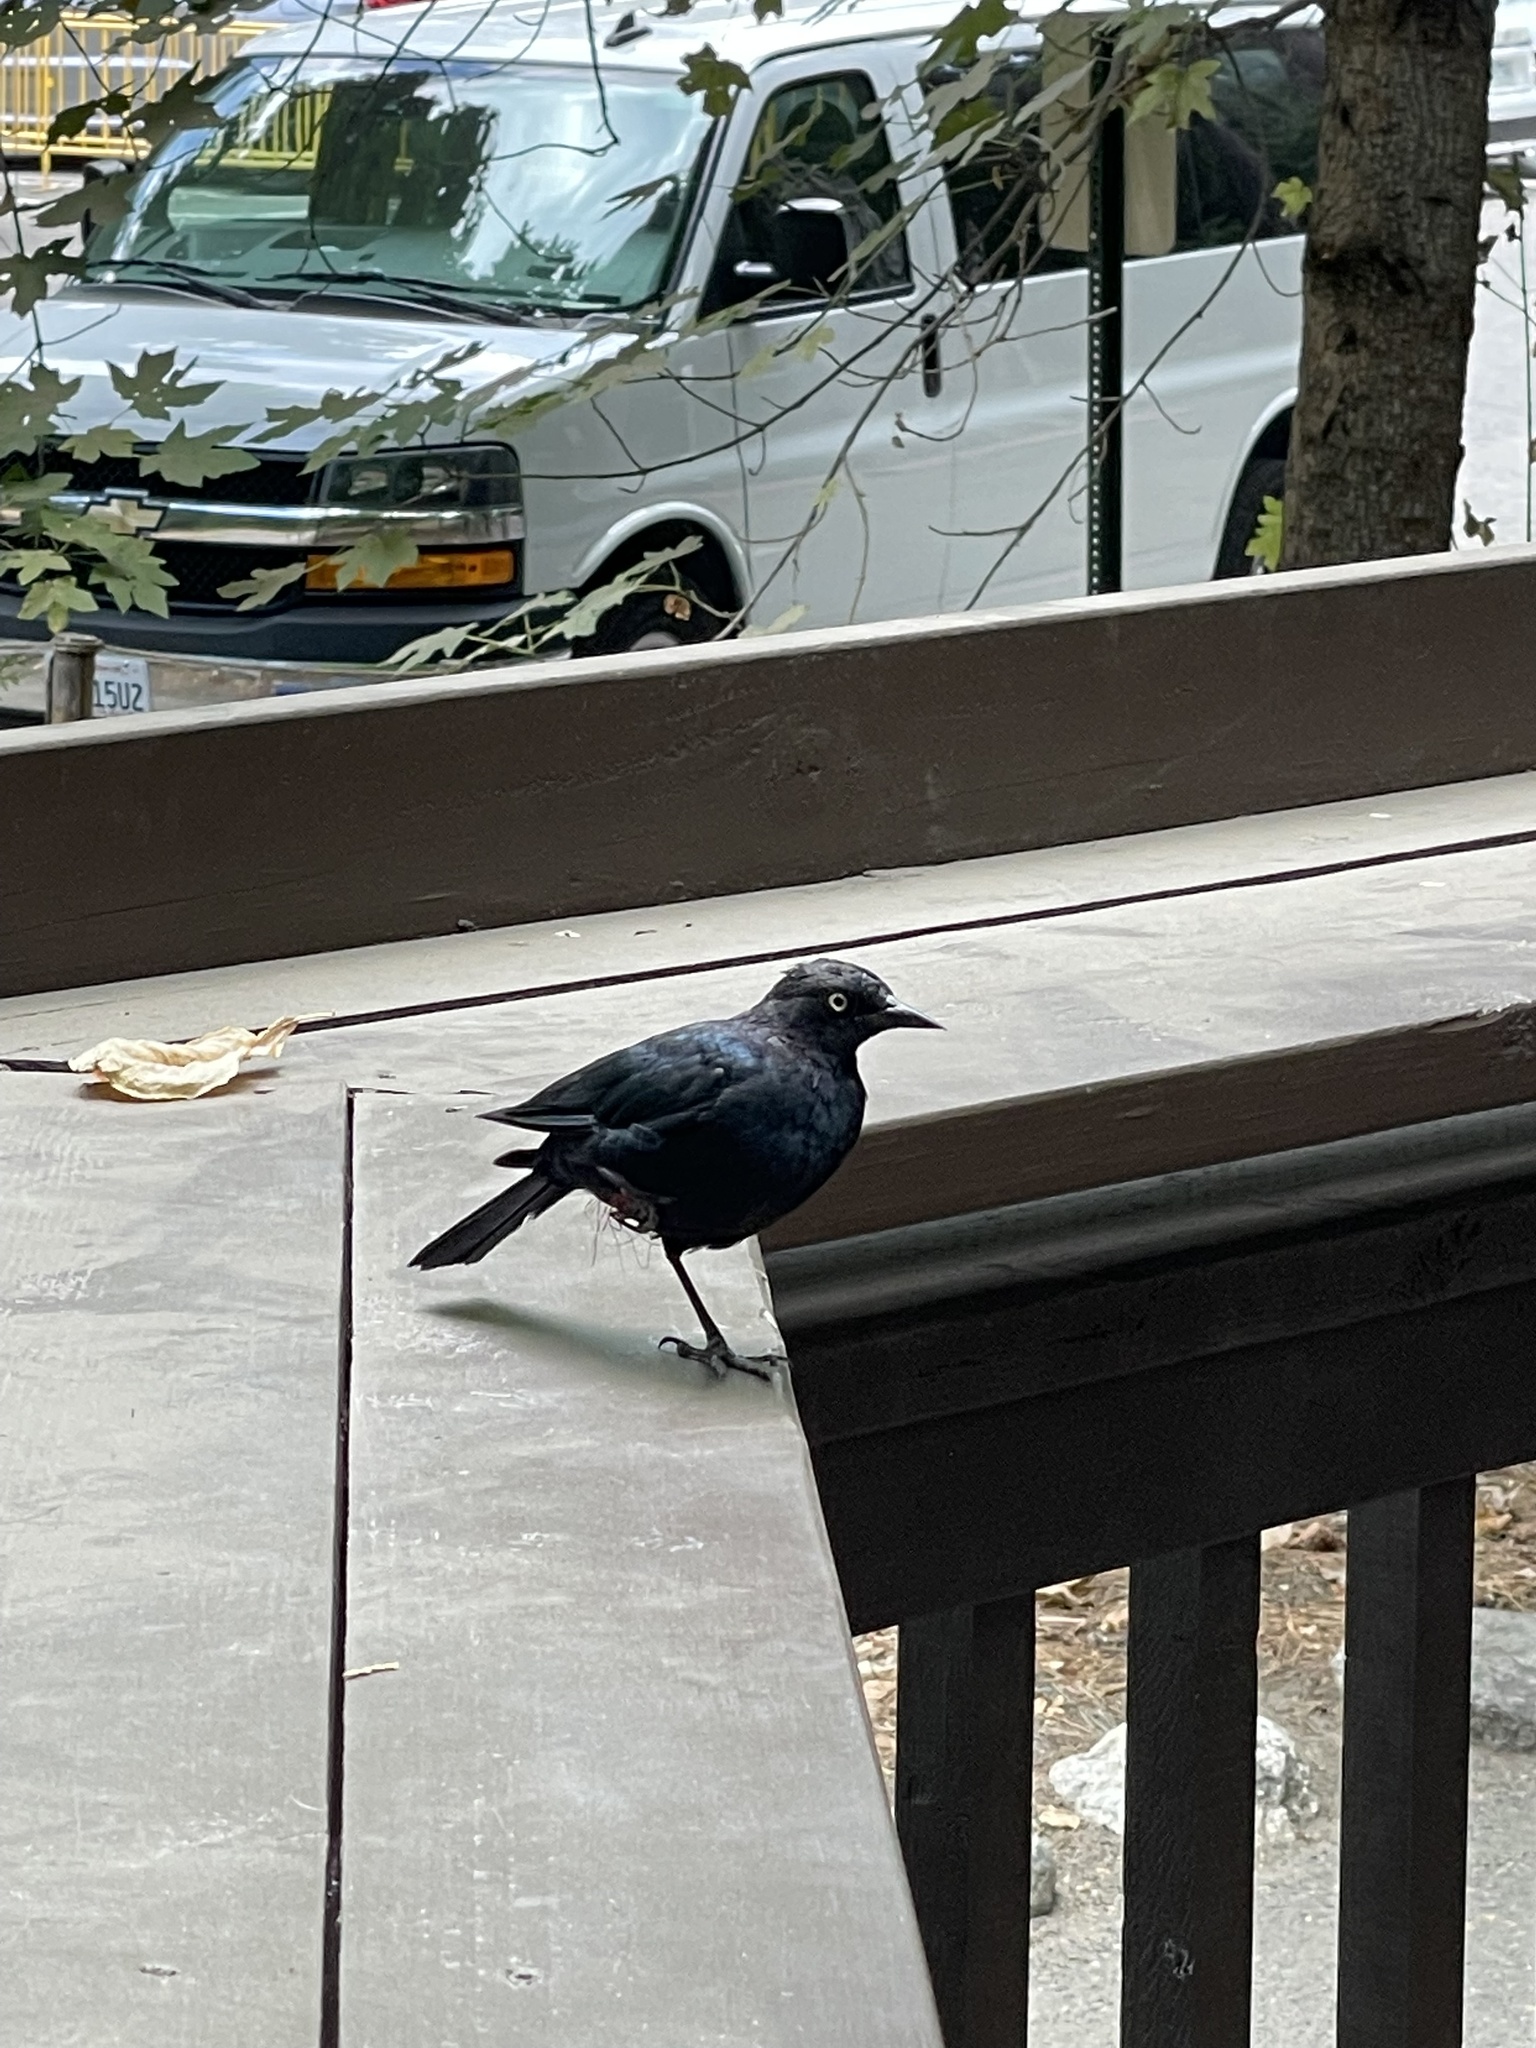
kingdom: Animalia
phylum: Chordata
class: Aves
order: Passeriformes
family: Icteridae
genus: Euphagus
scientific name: Euphagus cyanocephalus
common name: Brewer's blackbird
